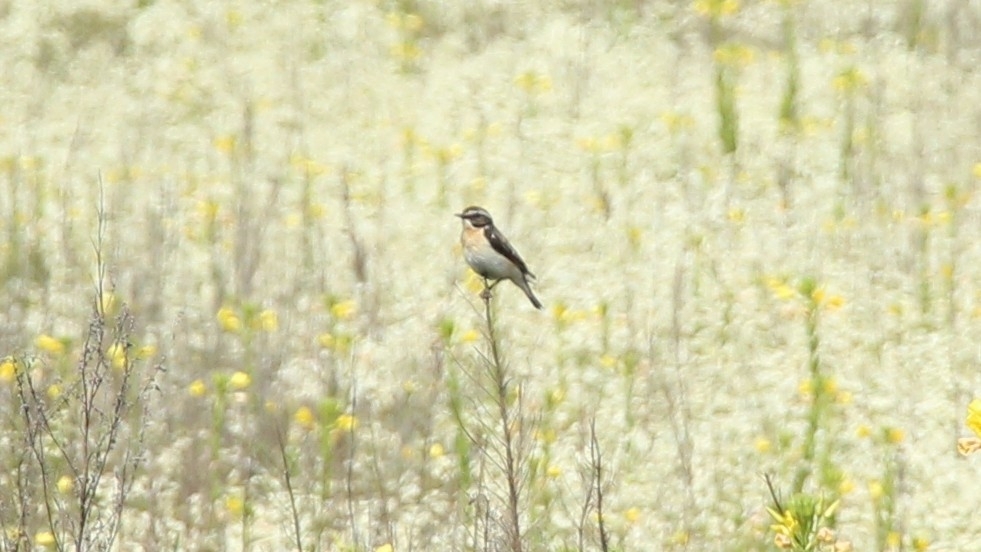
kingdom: Animalia
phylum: Chordata
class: Aves
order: Passeriformes
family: Muscicapidae
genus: Saxicola
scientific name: Saxicola rubetra
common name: Whinchat
